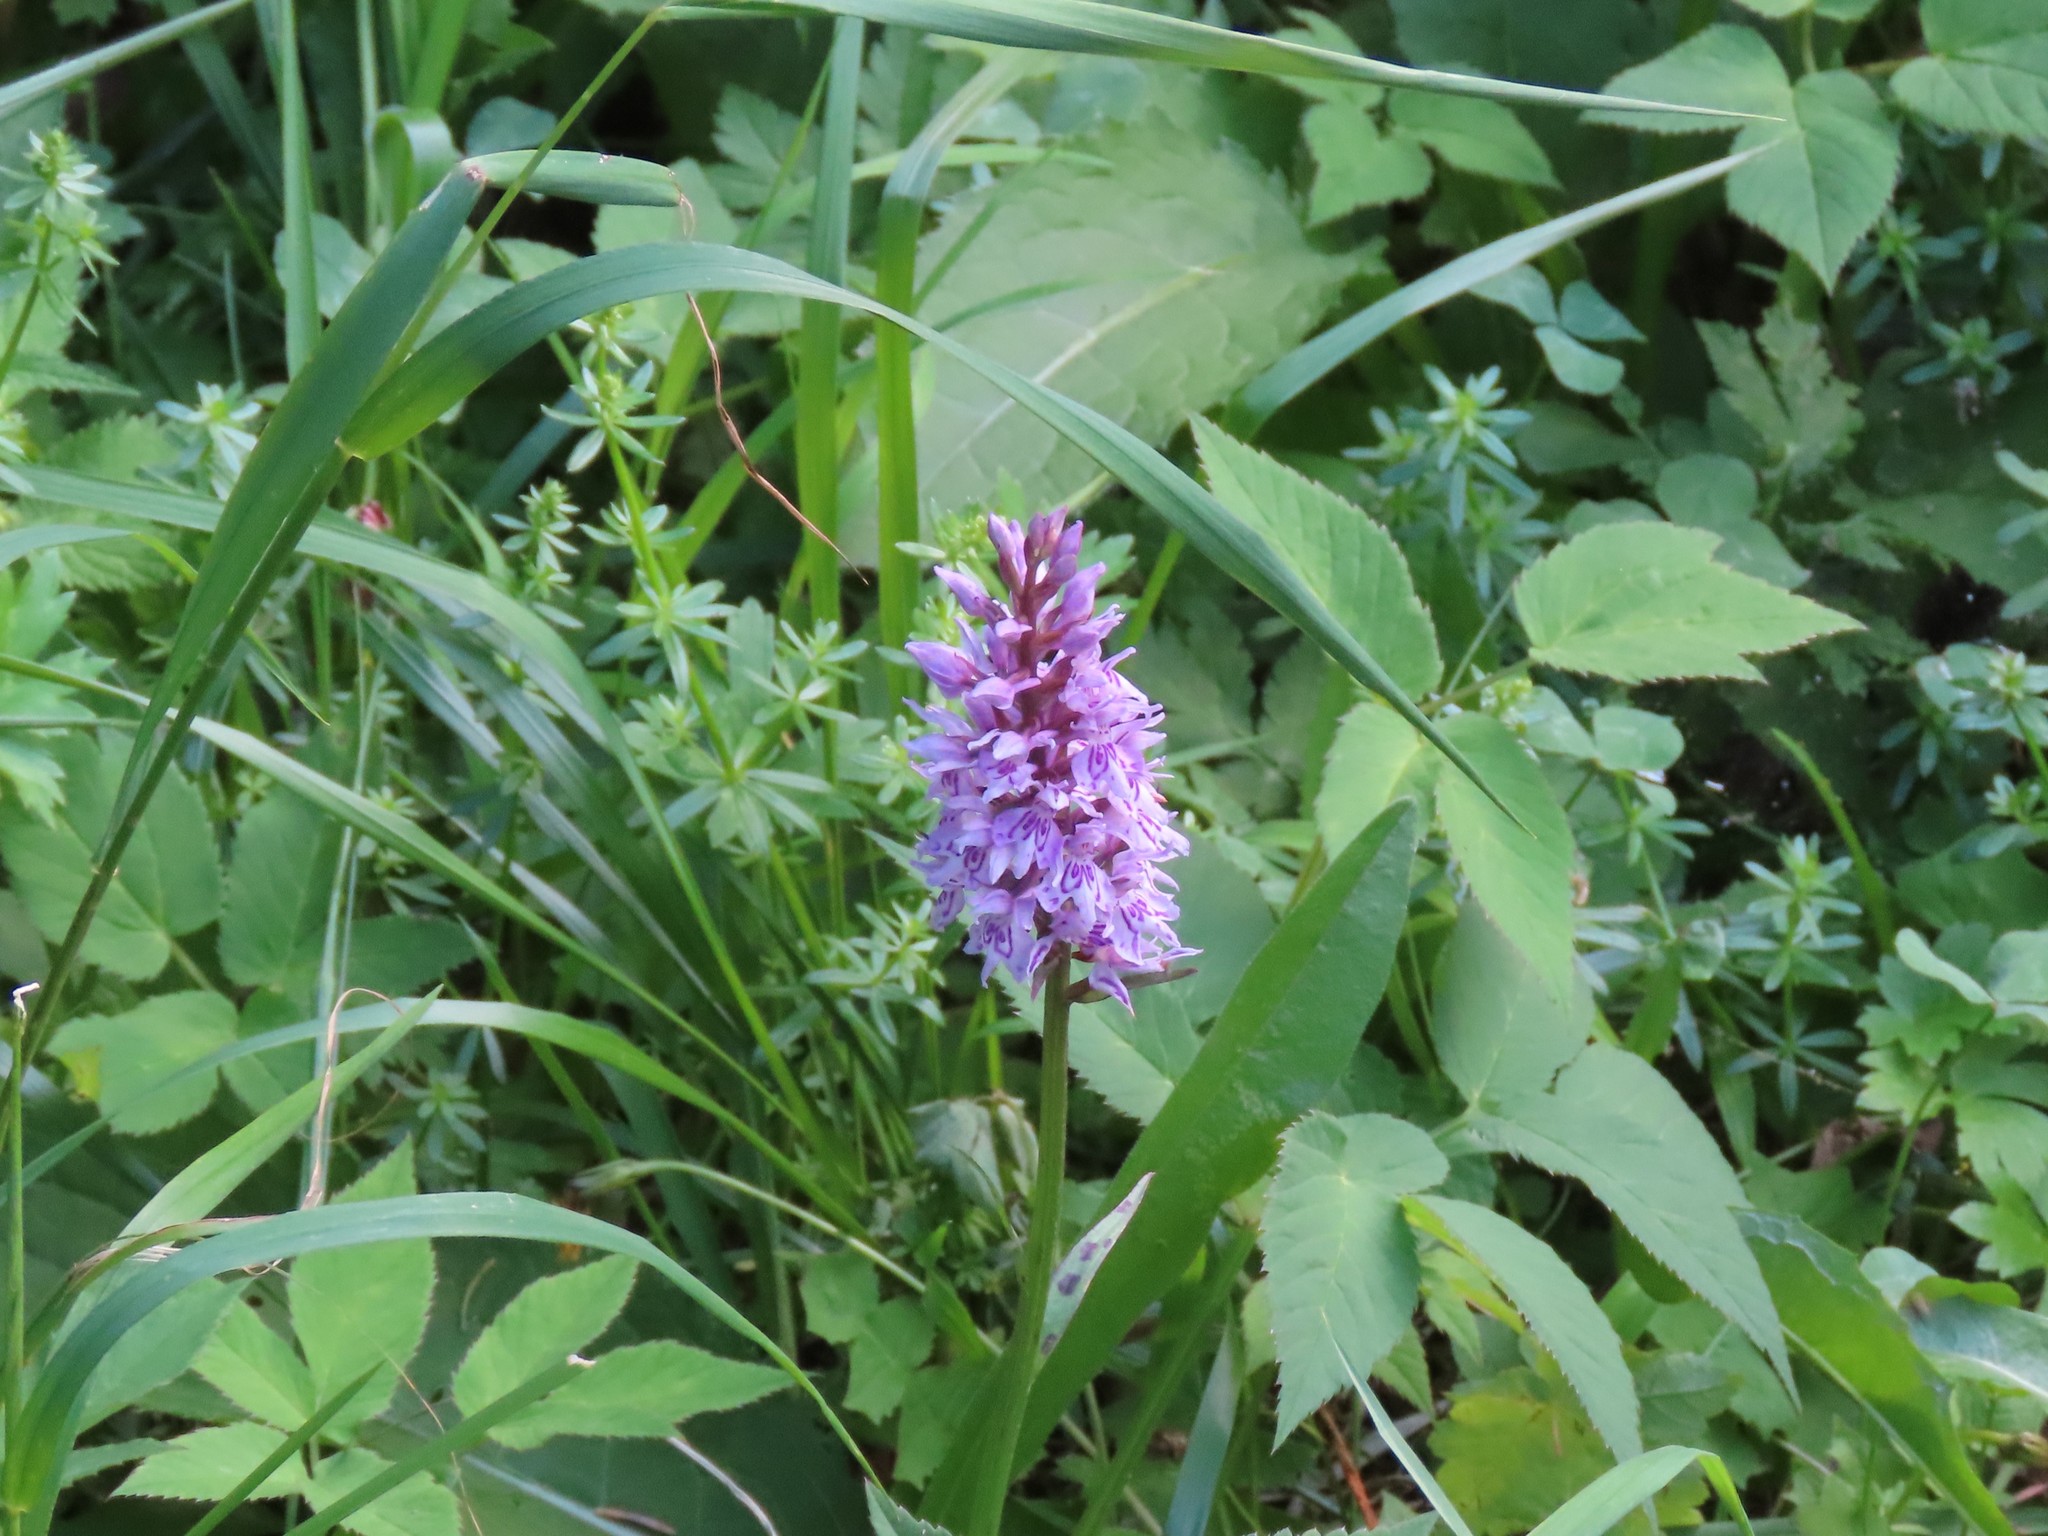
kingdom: Plantae
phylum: Tracheophyta
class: Liliopsida
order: Asparagales
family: Orchidaceae
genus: Dactylorhiza
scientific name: Dactylorhiza maculata
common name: Heath spotted-orchid
